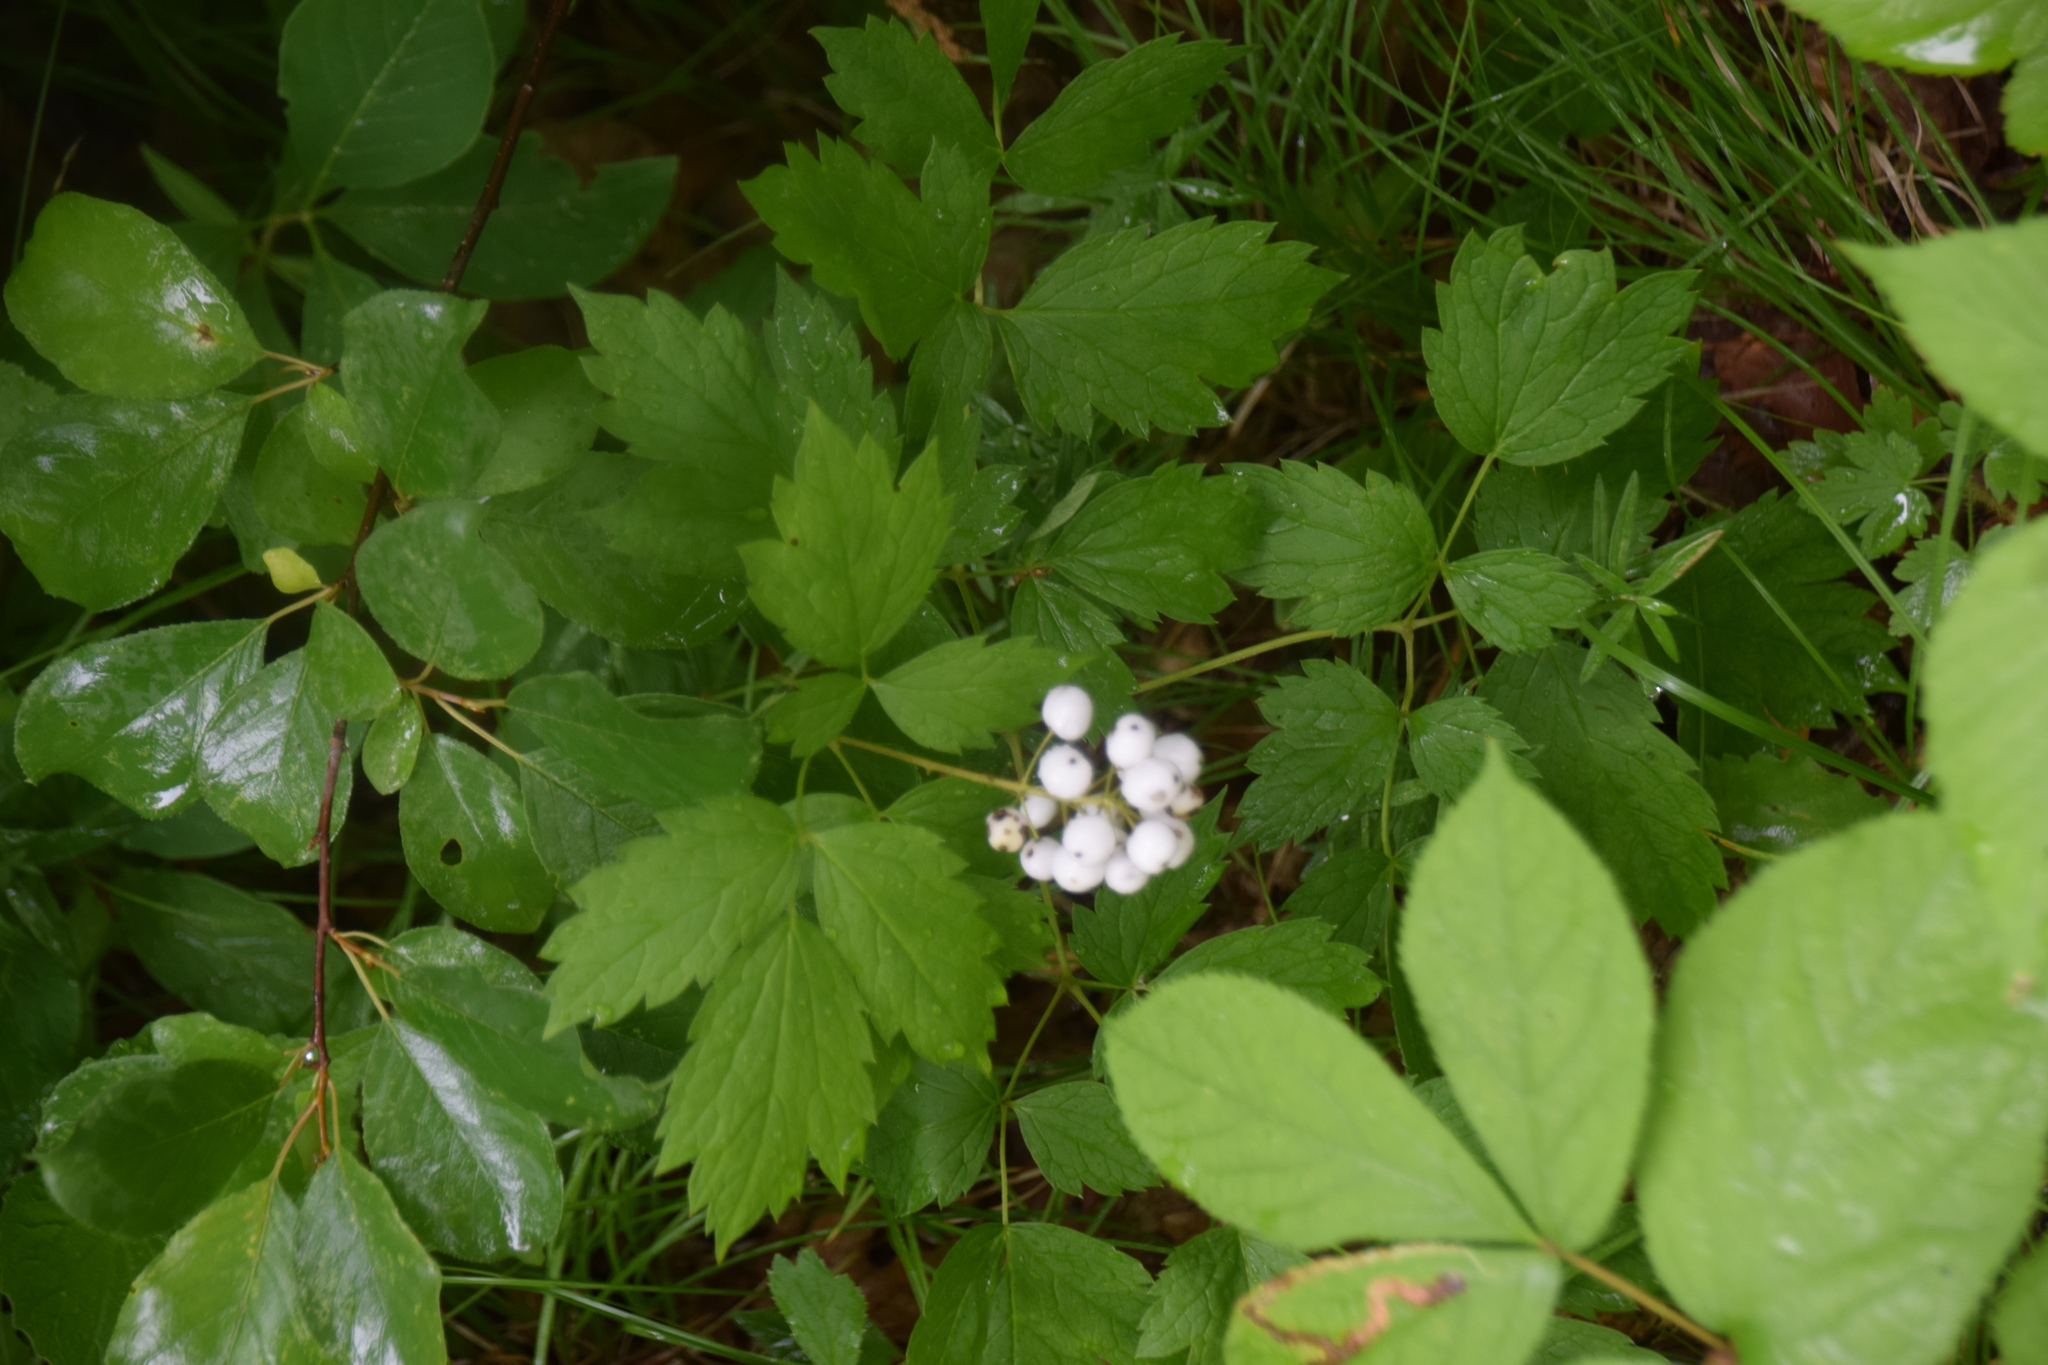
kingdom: Plantae
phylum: Tracheophyta
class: Magnoliopsida
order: Ranunculales
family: Ranunculaceae
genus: Actaea
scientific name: Actaea rubra
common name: Red baneberry
